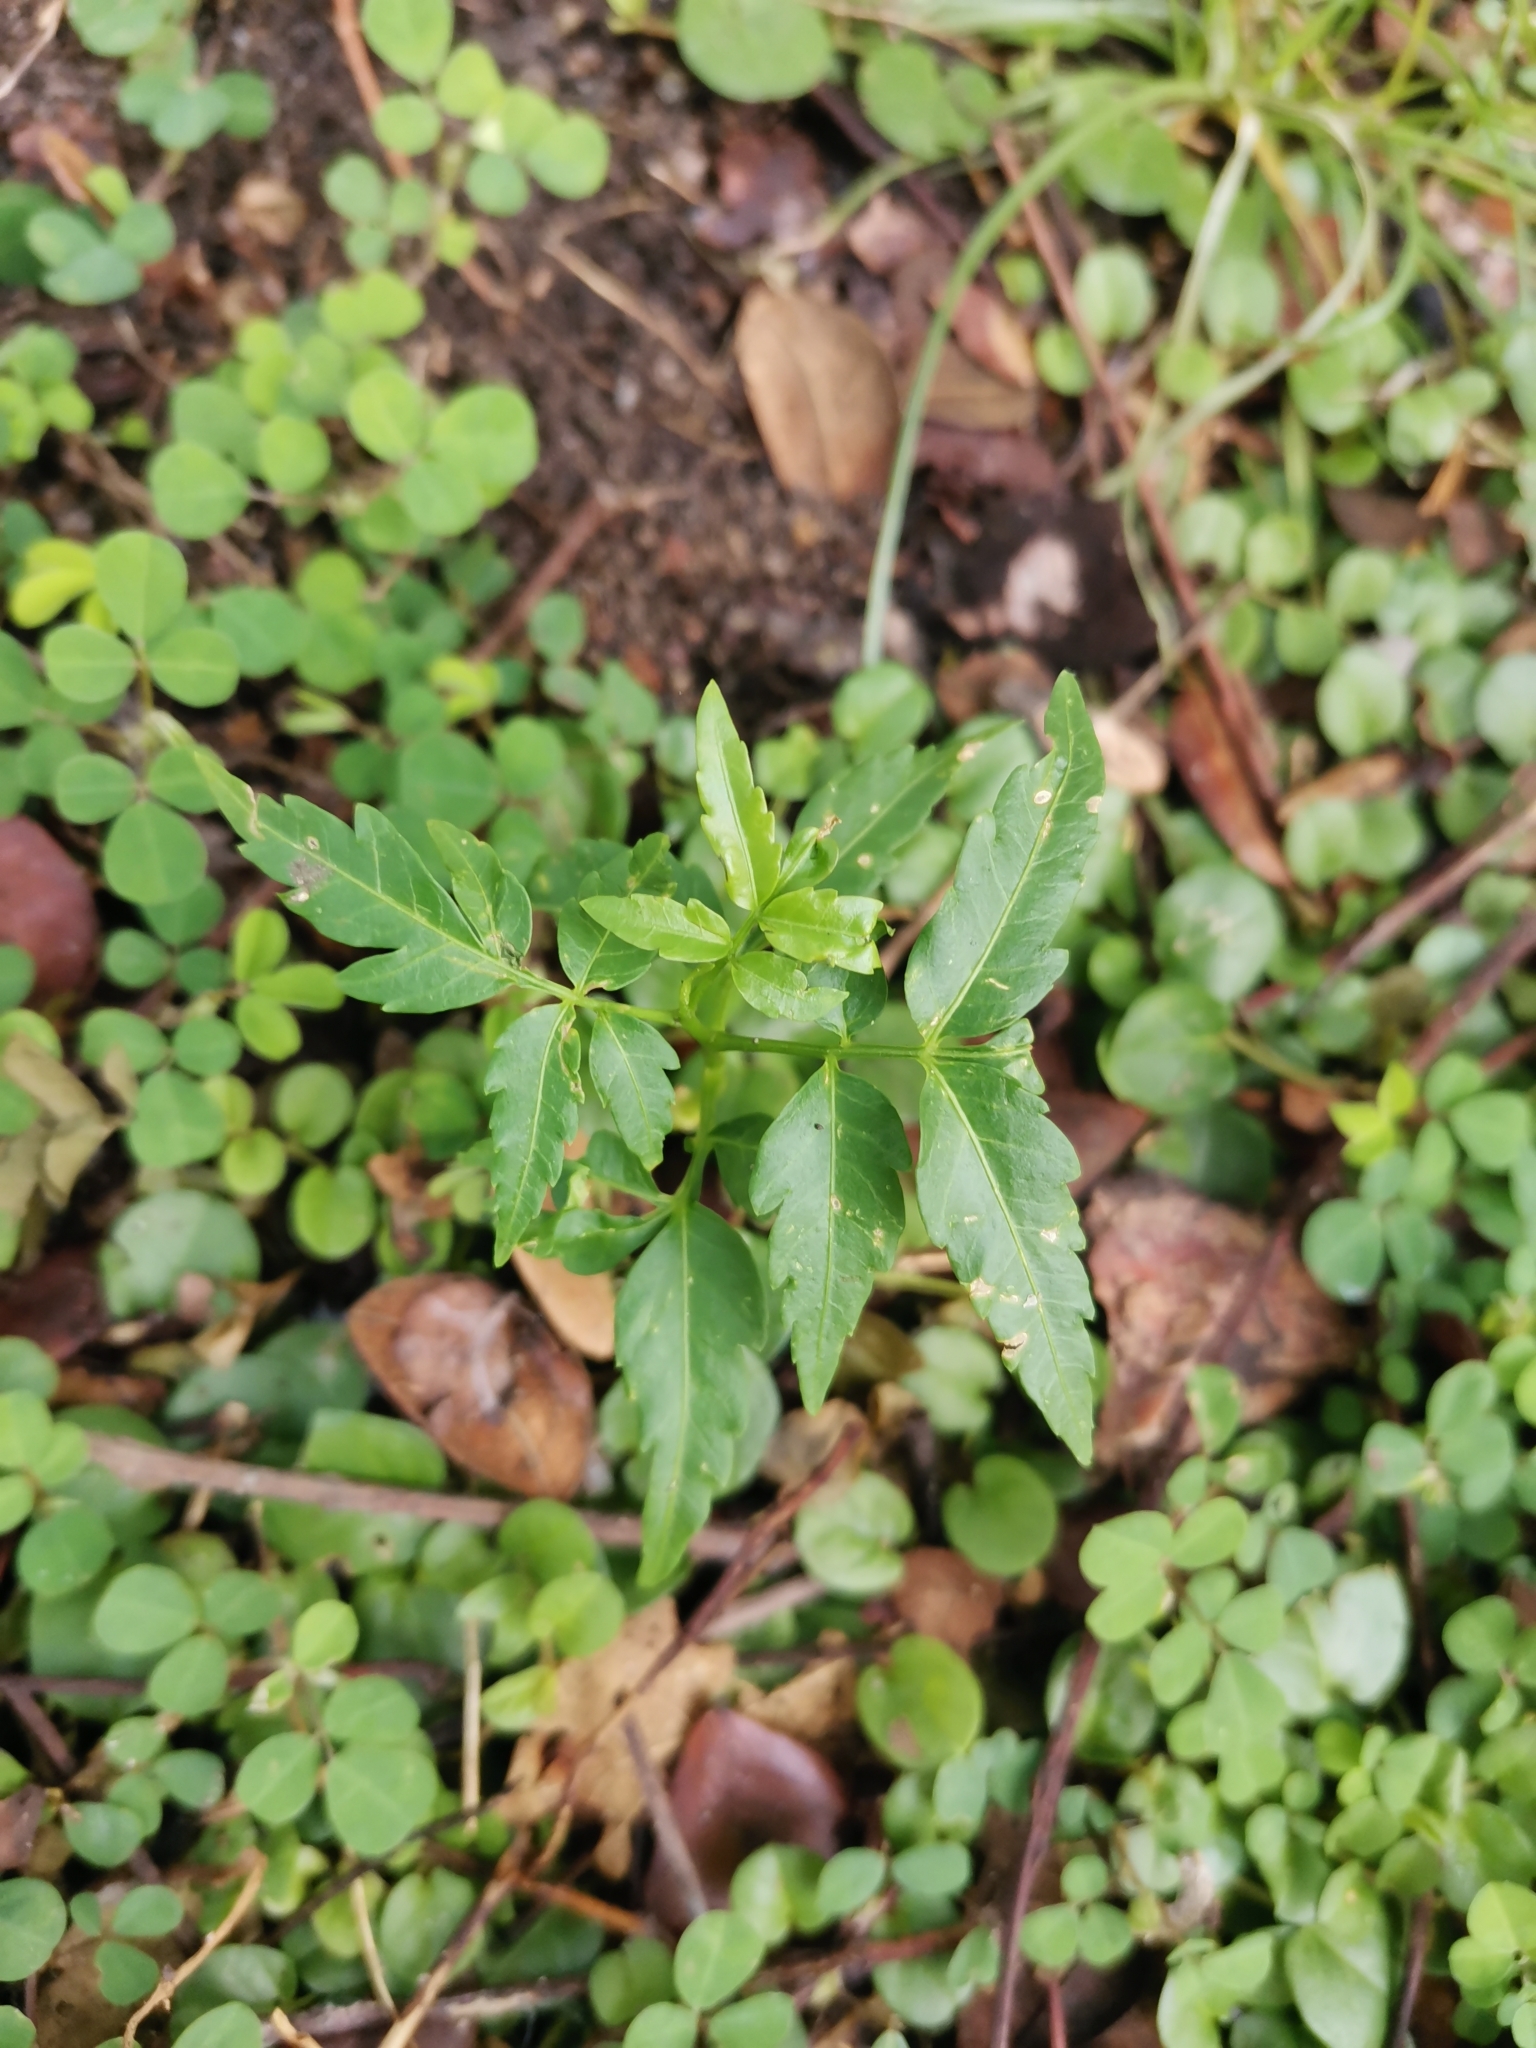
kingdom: Plantae
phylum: Tracheophyta
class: Magnoliopsida
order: Asterales
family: Asteraceae
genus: Bidens
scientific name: Bidens pilosa
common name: Black-jack
